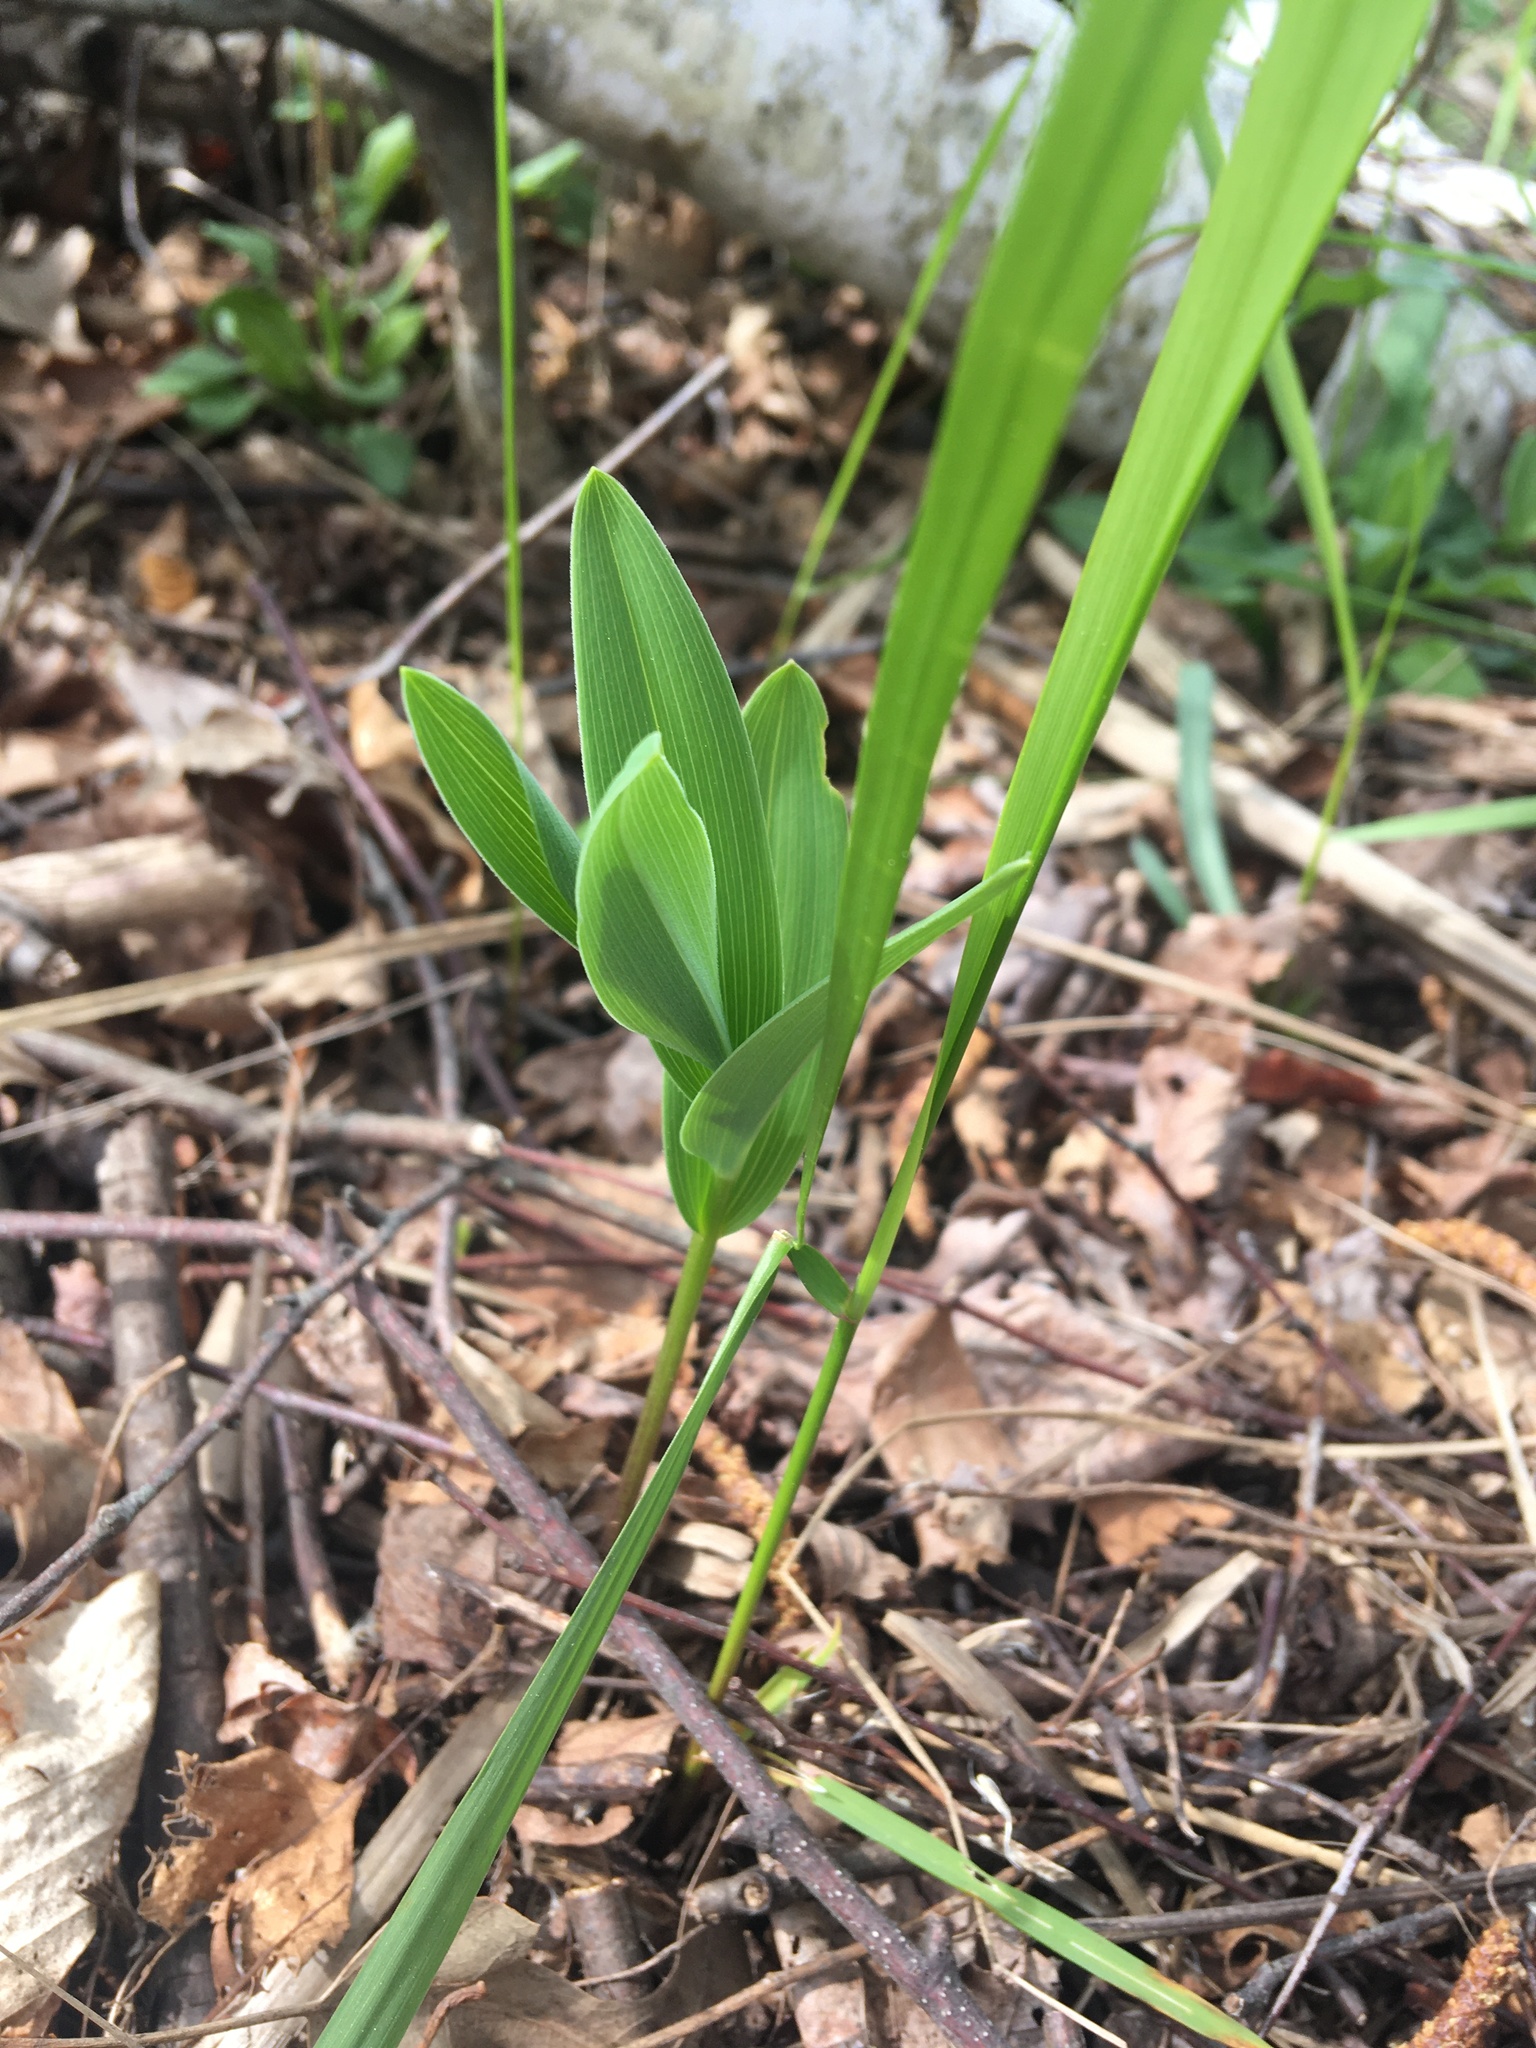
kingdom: Plantae
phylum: Tracheophyta
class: Liliopsida
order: Asparagales
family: Asparagaceae
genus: Maianthemum
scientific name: Maianthemum stellatum
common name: Little false solomon's seal
